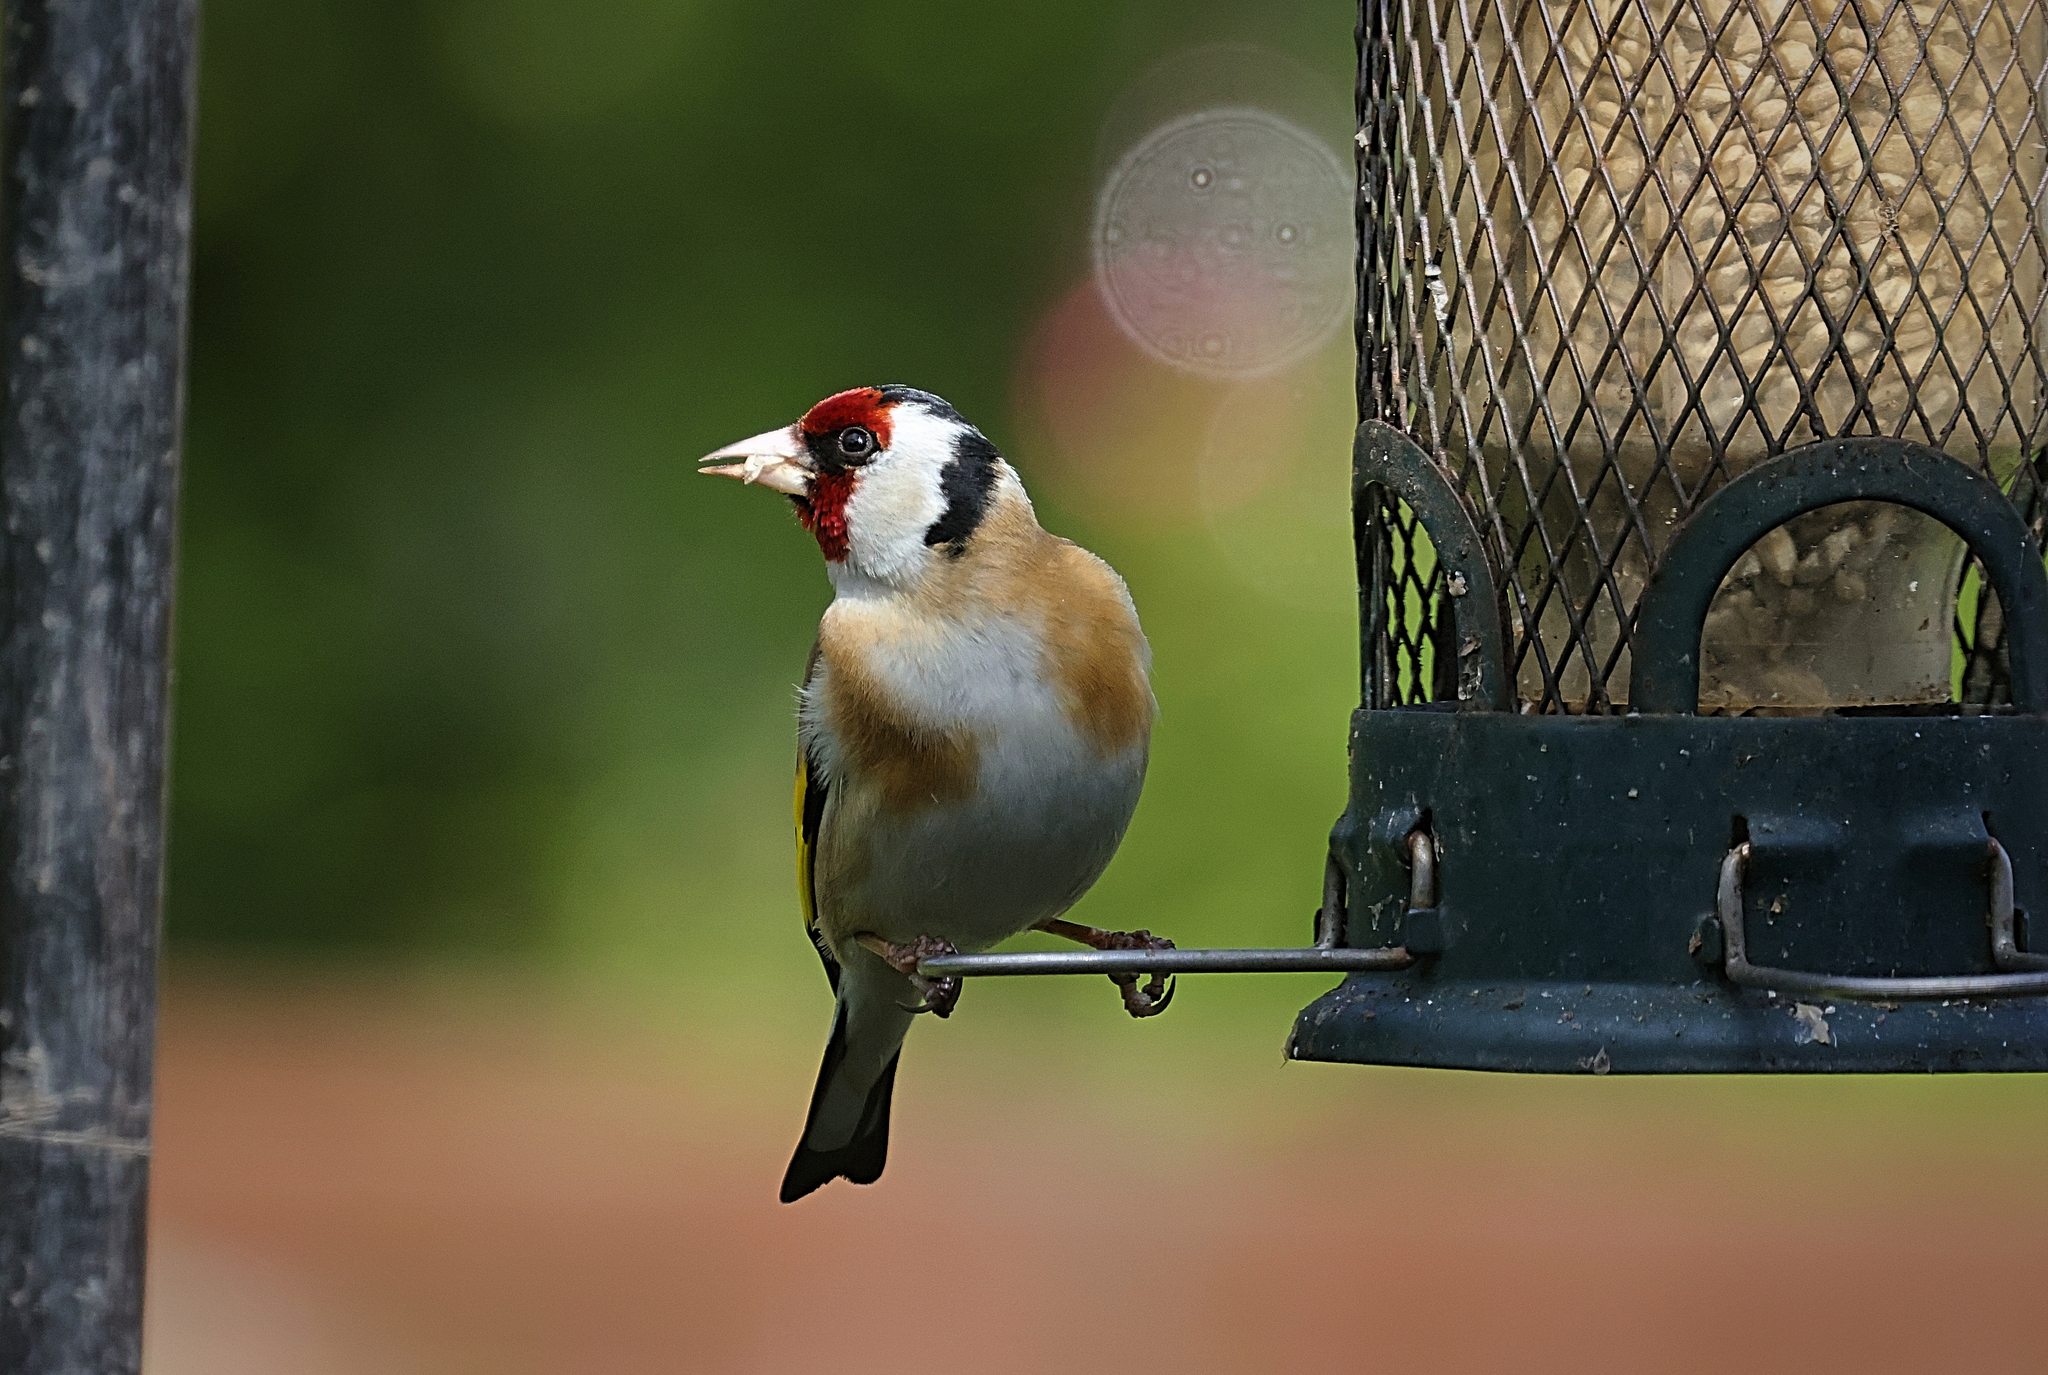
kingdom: Animalia
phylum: Chordata
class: Aves
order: Passeriformes
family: Fringillidae
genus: Carduelis
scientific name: Carduelis carduelis
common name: European goldfinch
